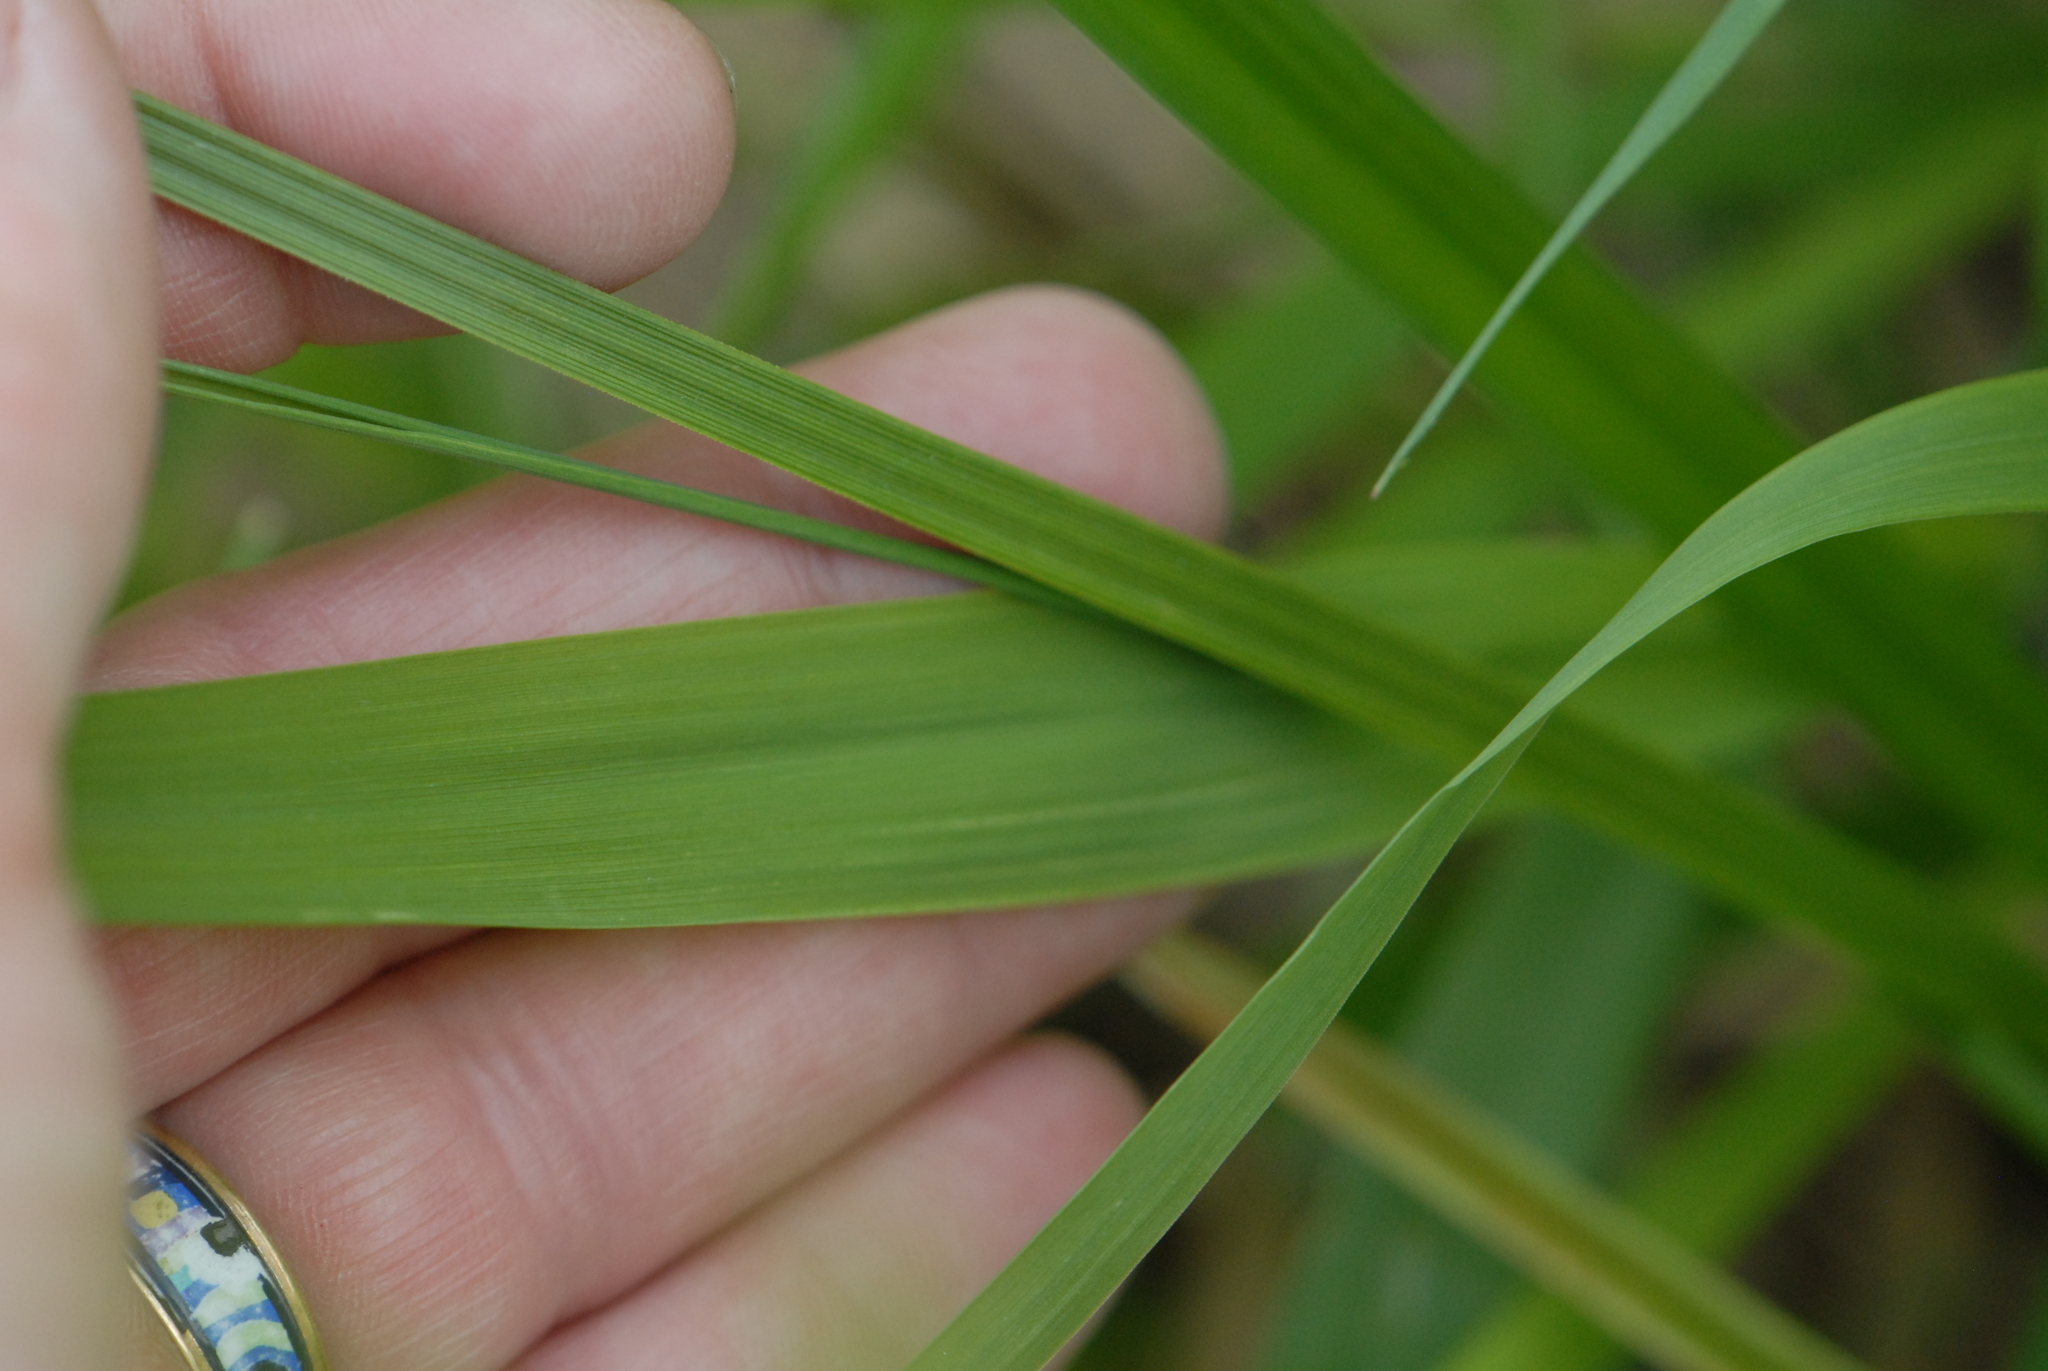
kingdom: Plantae
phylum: Tracheophyta
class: Liliopsida
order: Poales
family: Cyperaceae
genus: Carex
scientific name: Carex vulpina
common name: True fox-sedge
